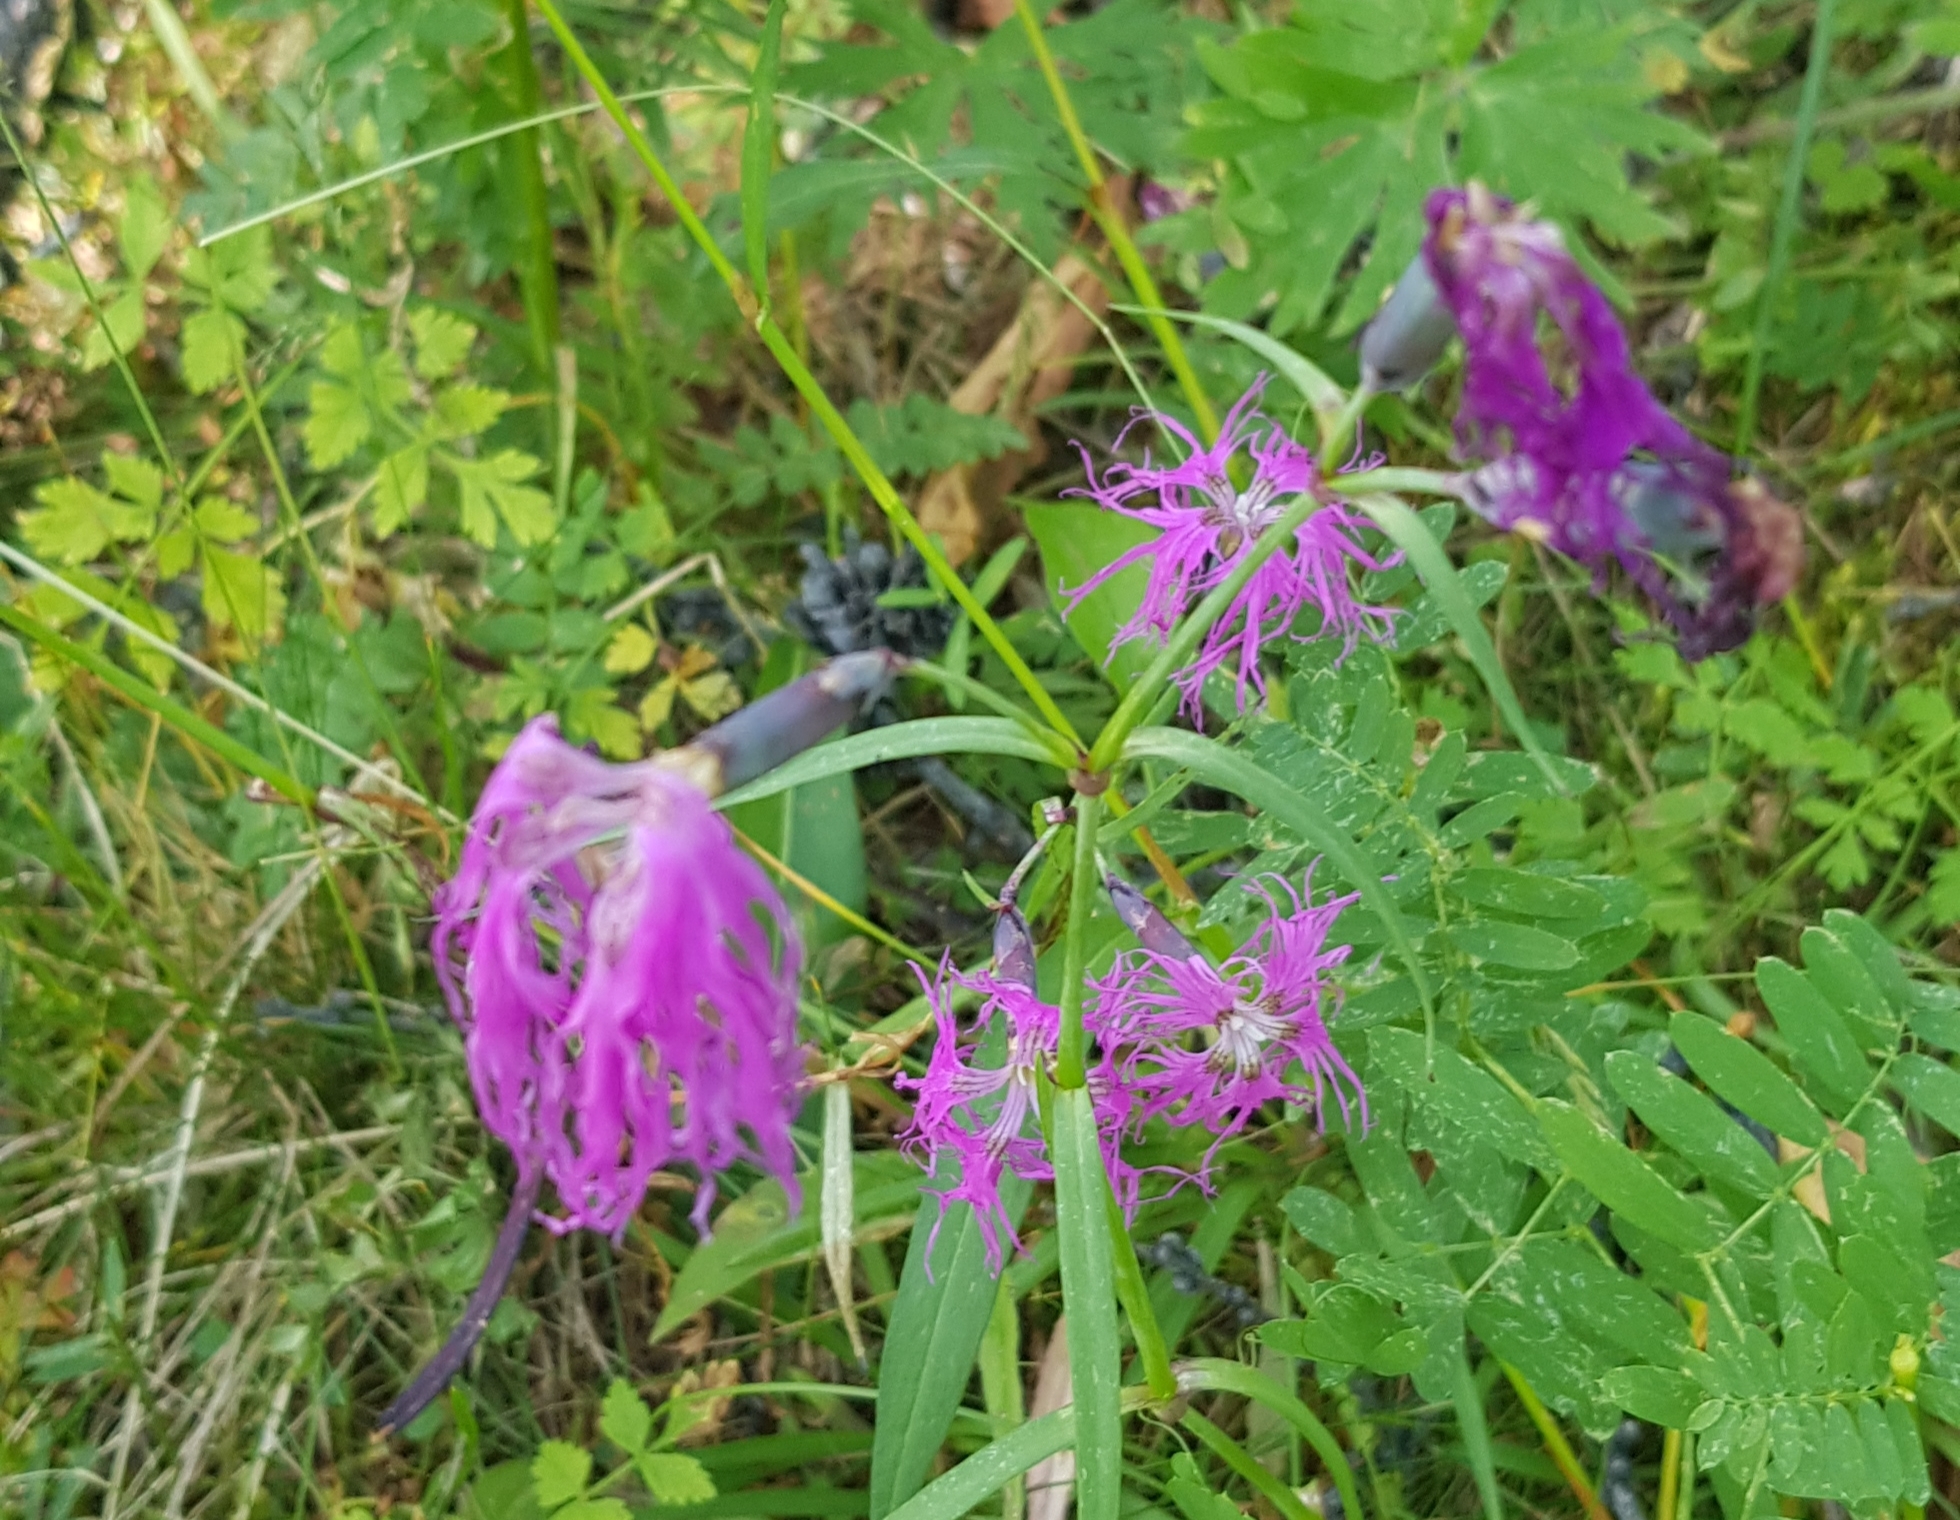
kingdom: Plantae
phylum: Tracheophyta
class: Magnoliopsida
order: Caryophyllales
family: Caryophyllaceae
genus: Dianthus
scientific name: Dianthus superbus
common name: Fringed pink
